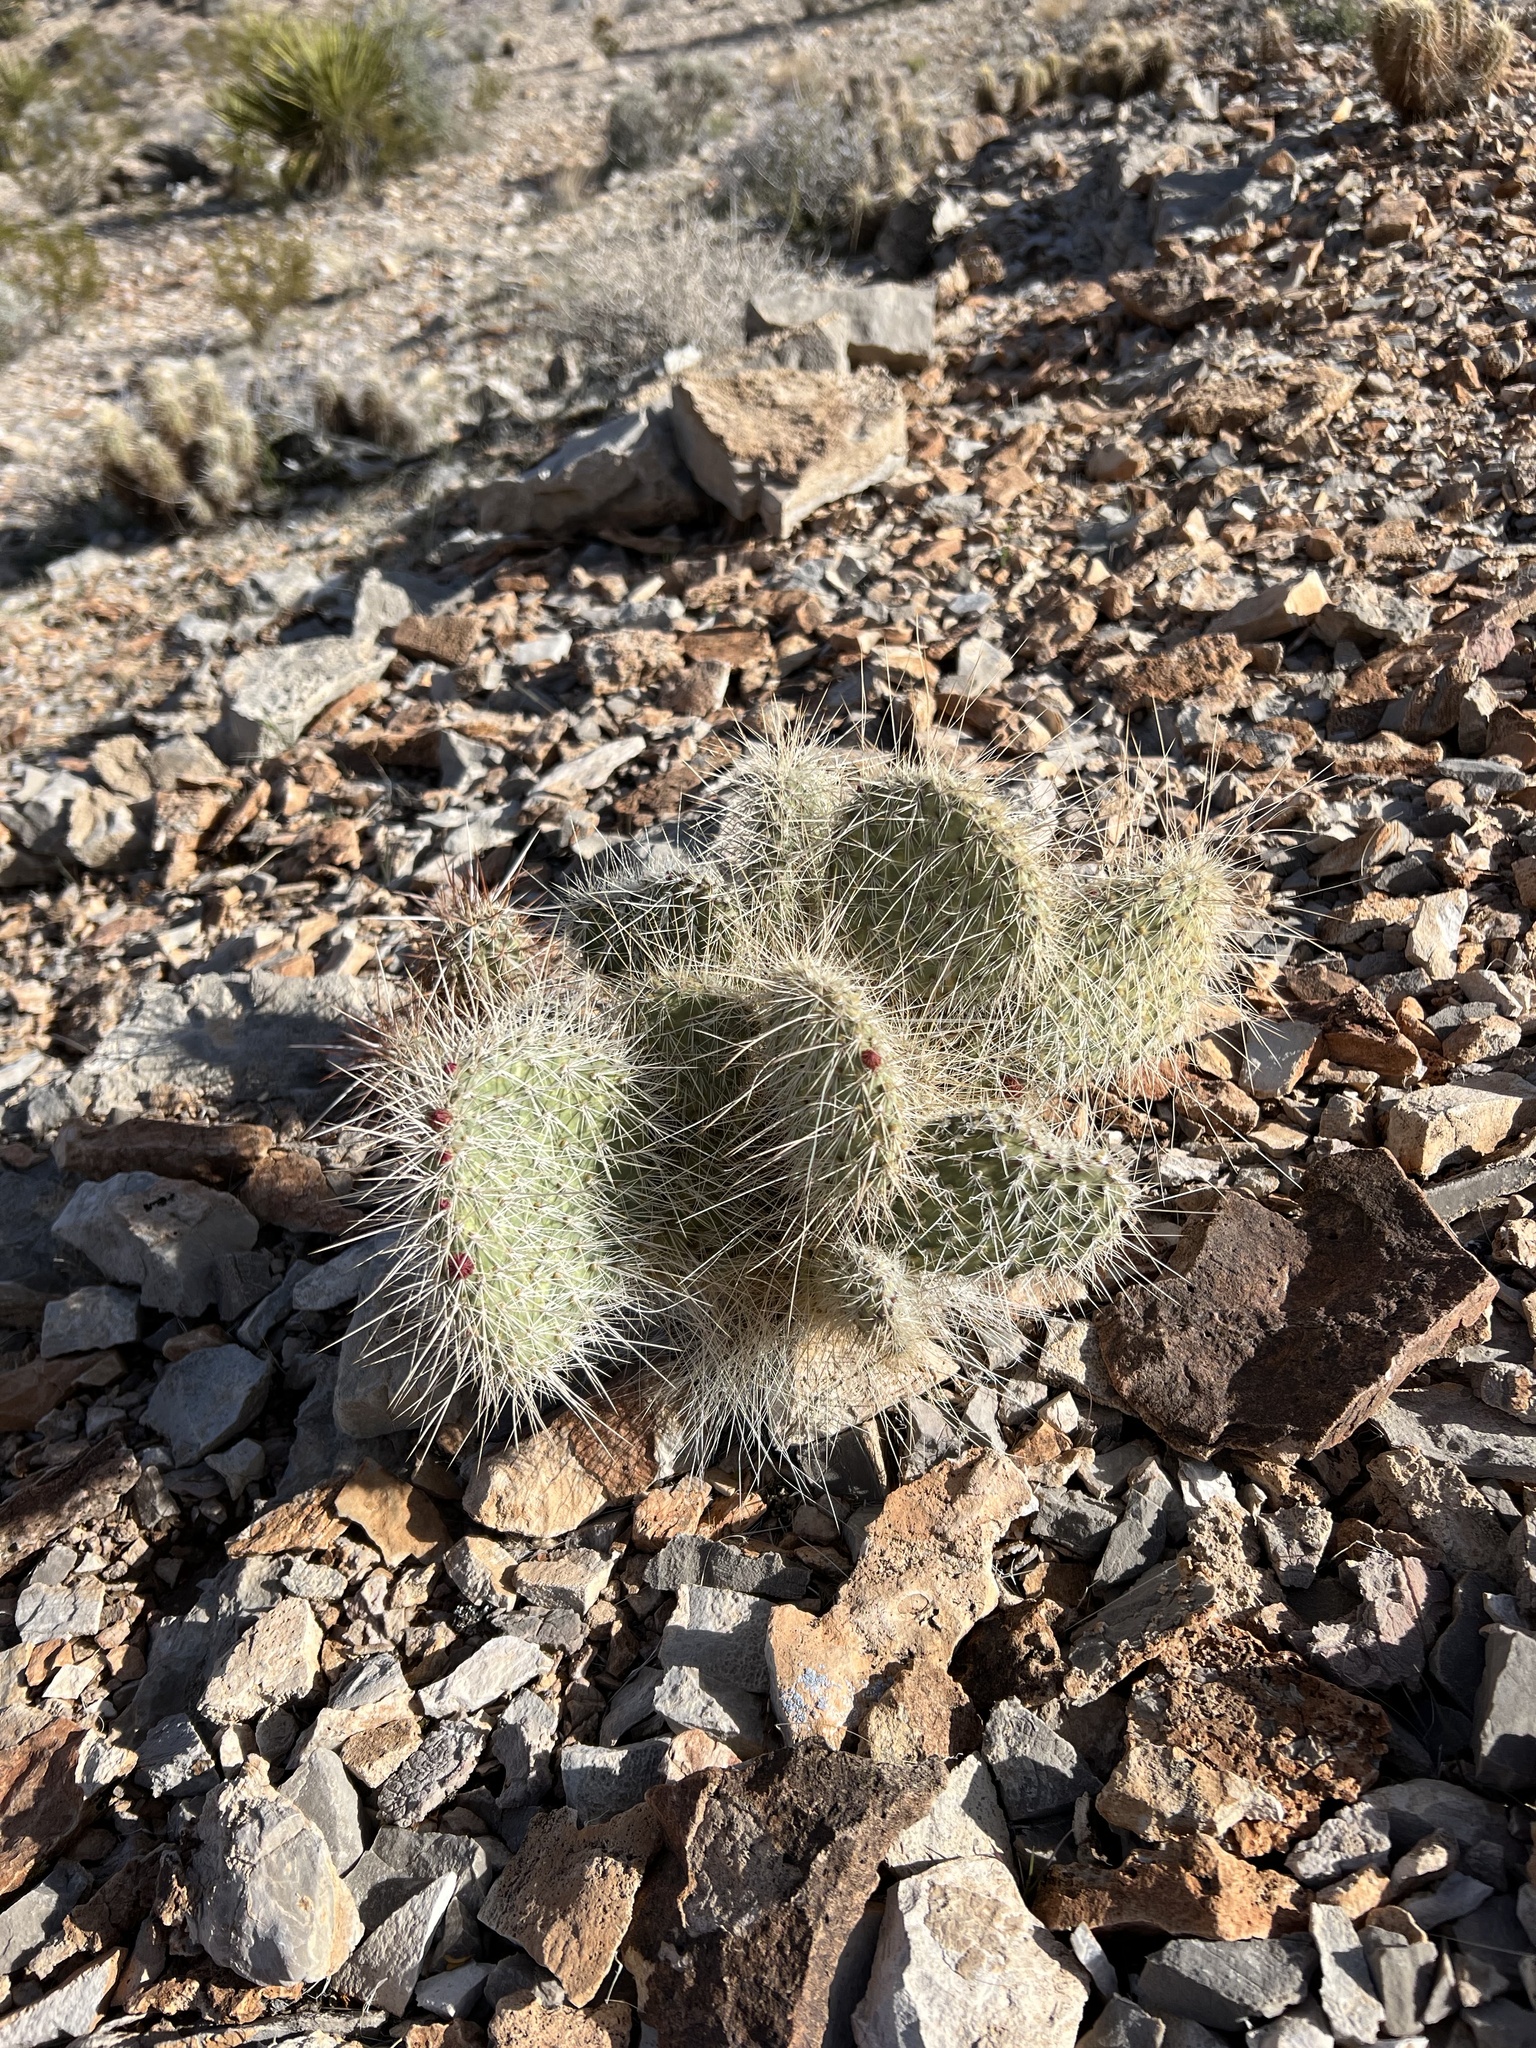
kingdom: Plantae
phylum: Tracheophyta
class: Magnoliopsida
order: Caryophyllales
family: Cactaceae
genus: Opuntia
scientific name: Opuntia polyacantha
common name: Plains prickly-pear
